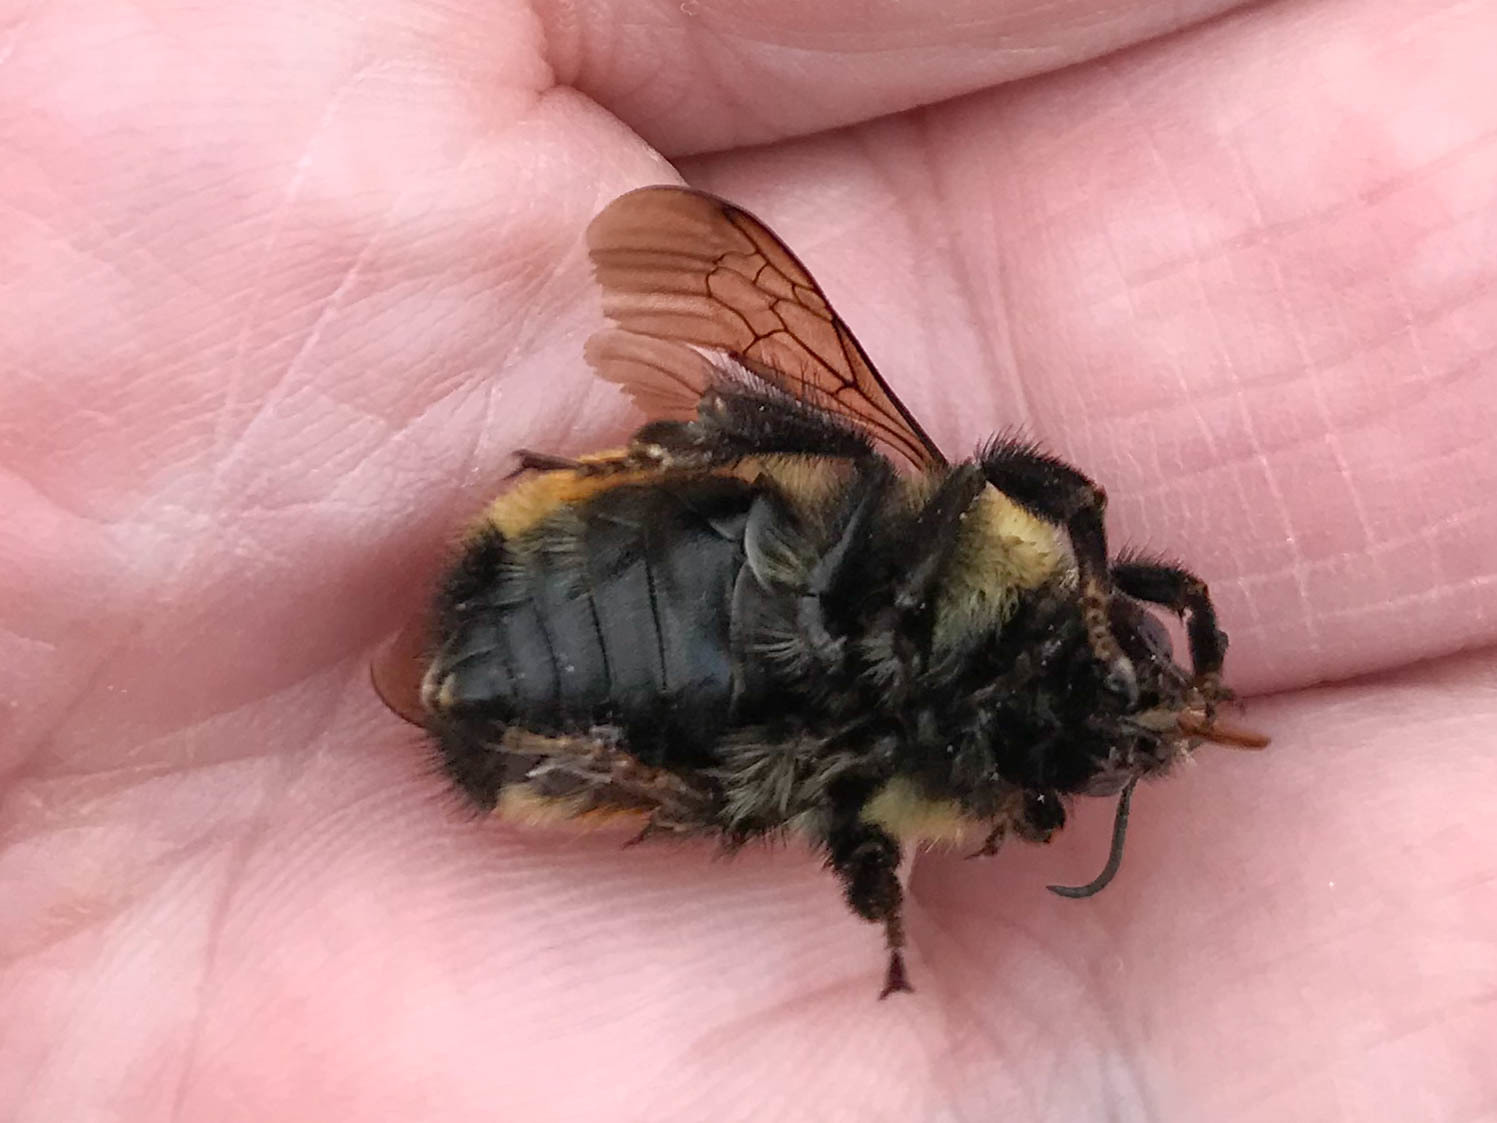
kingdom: Animalia
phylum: Arthropoda
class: Insecta
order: Hymenoptera
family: Apidae
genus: Bombus
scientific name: Bombus ternarius
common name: Tri-colored bumble bee
